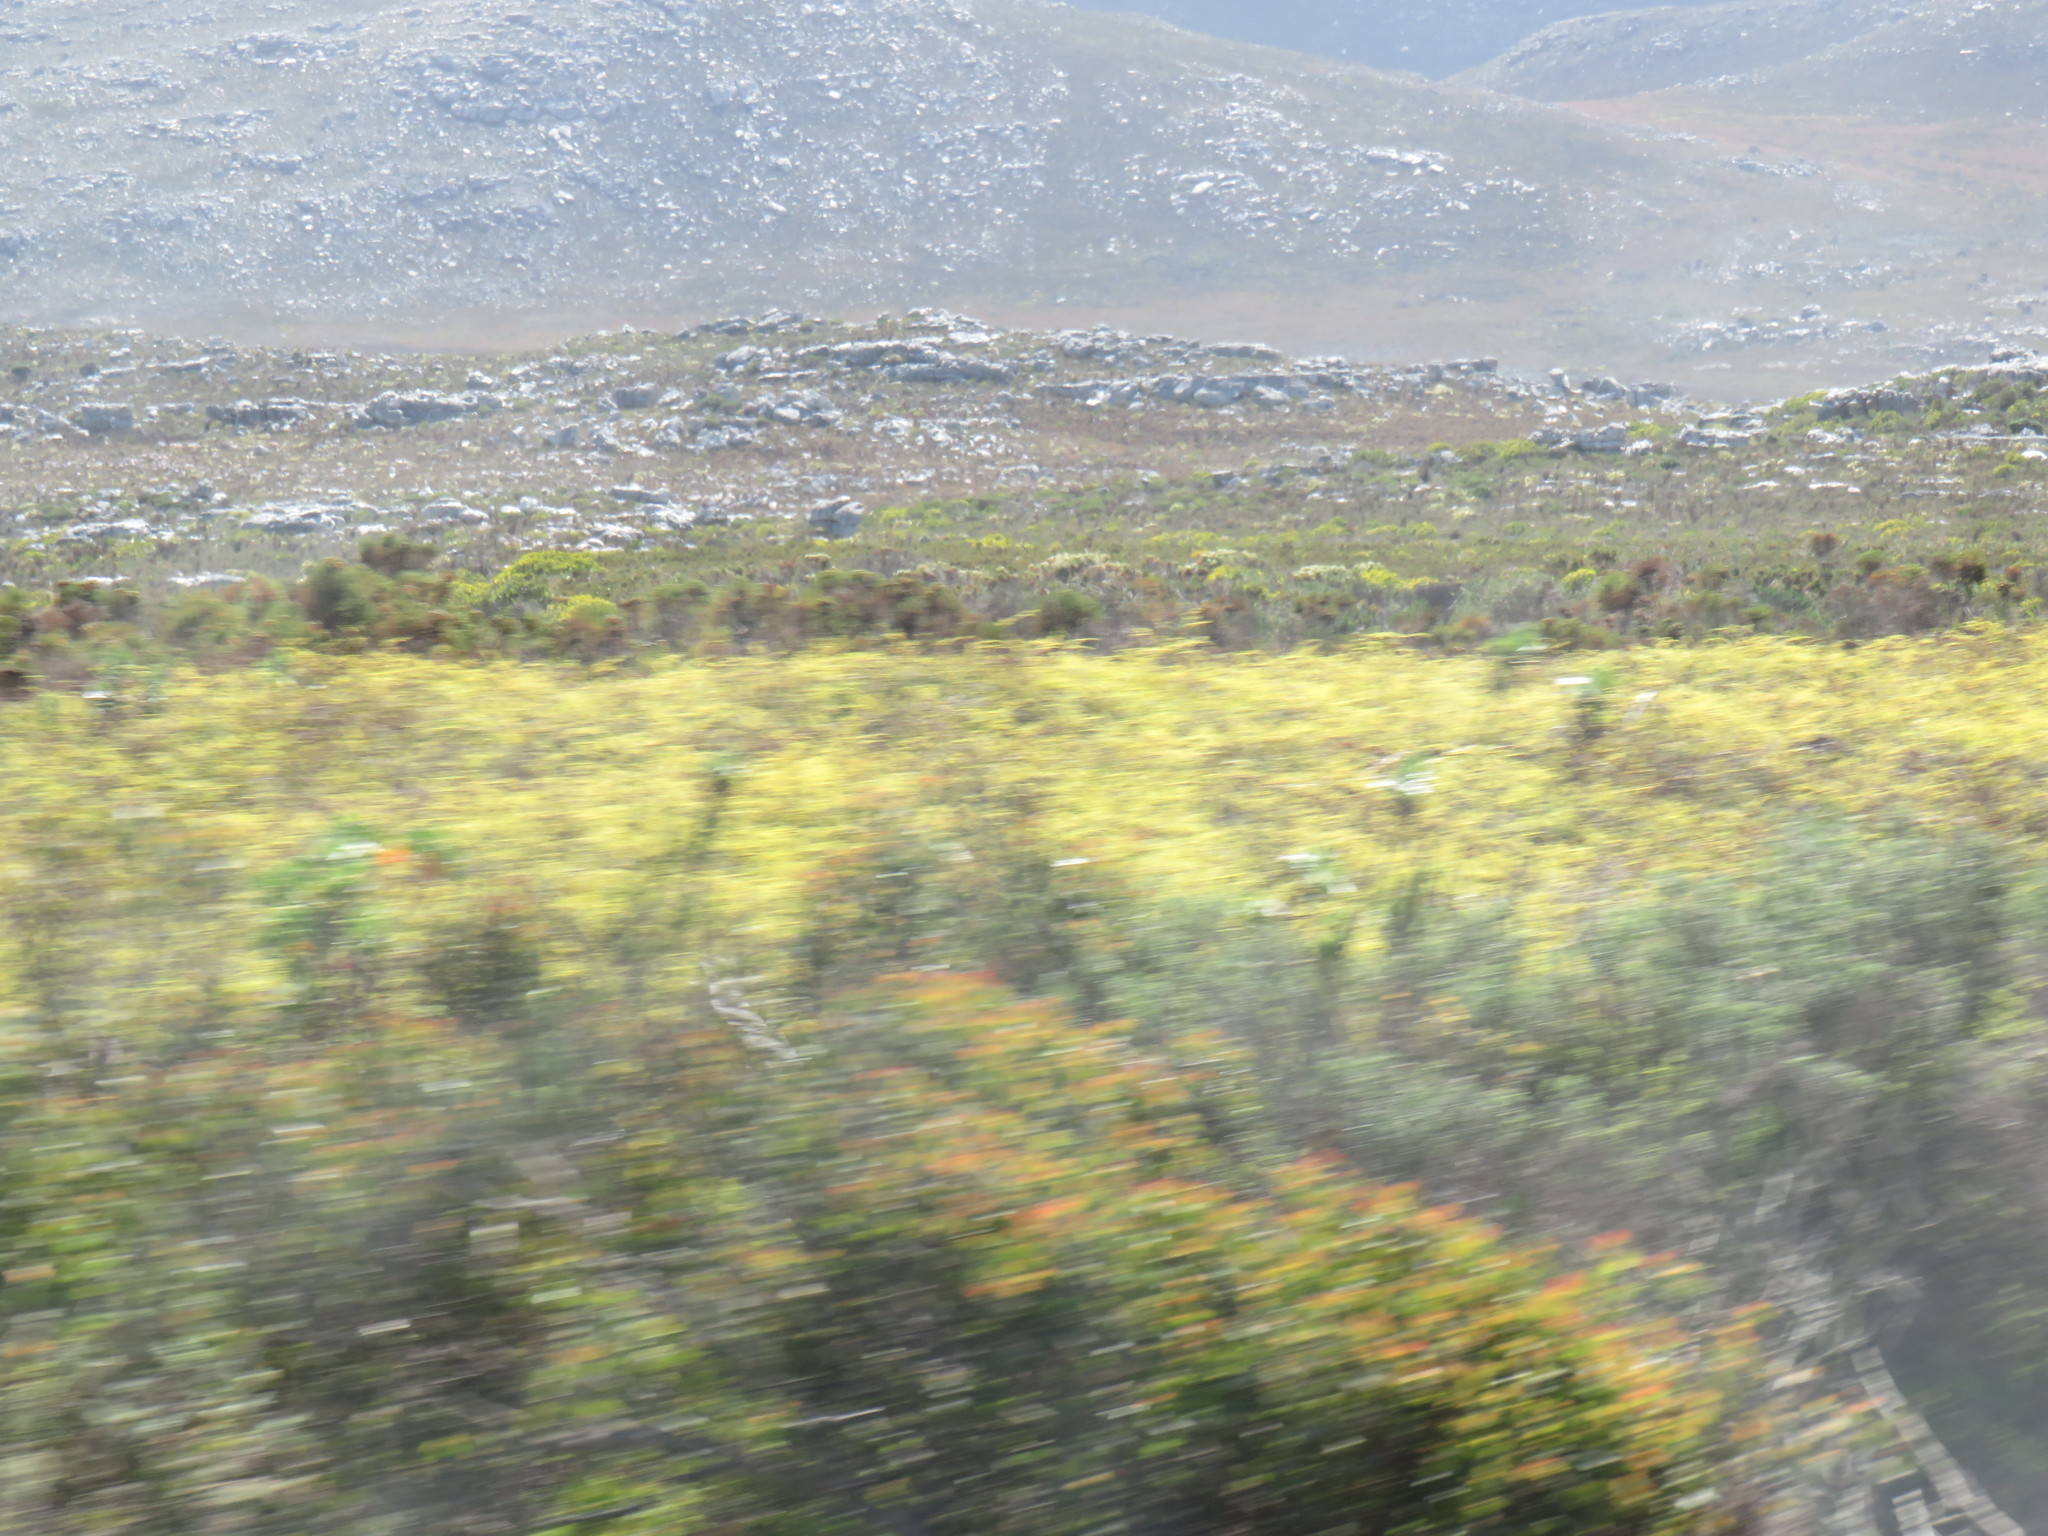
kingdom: Plantae
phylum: Tracheophyta
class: Polypodiopsida
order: Gleicheniales
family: Gleicheniaceae
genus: Gleichenia
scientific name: Gleichenia polypodioides
